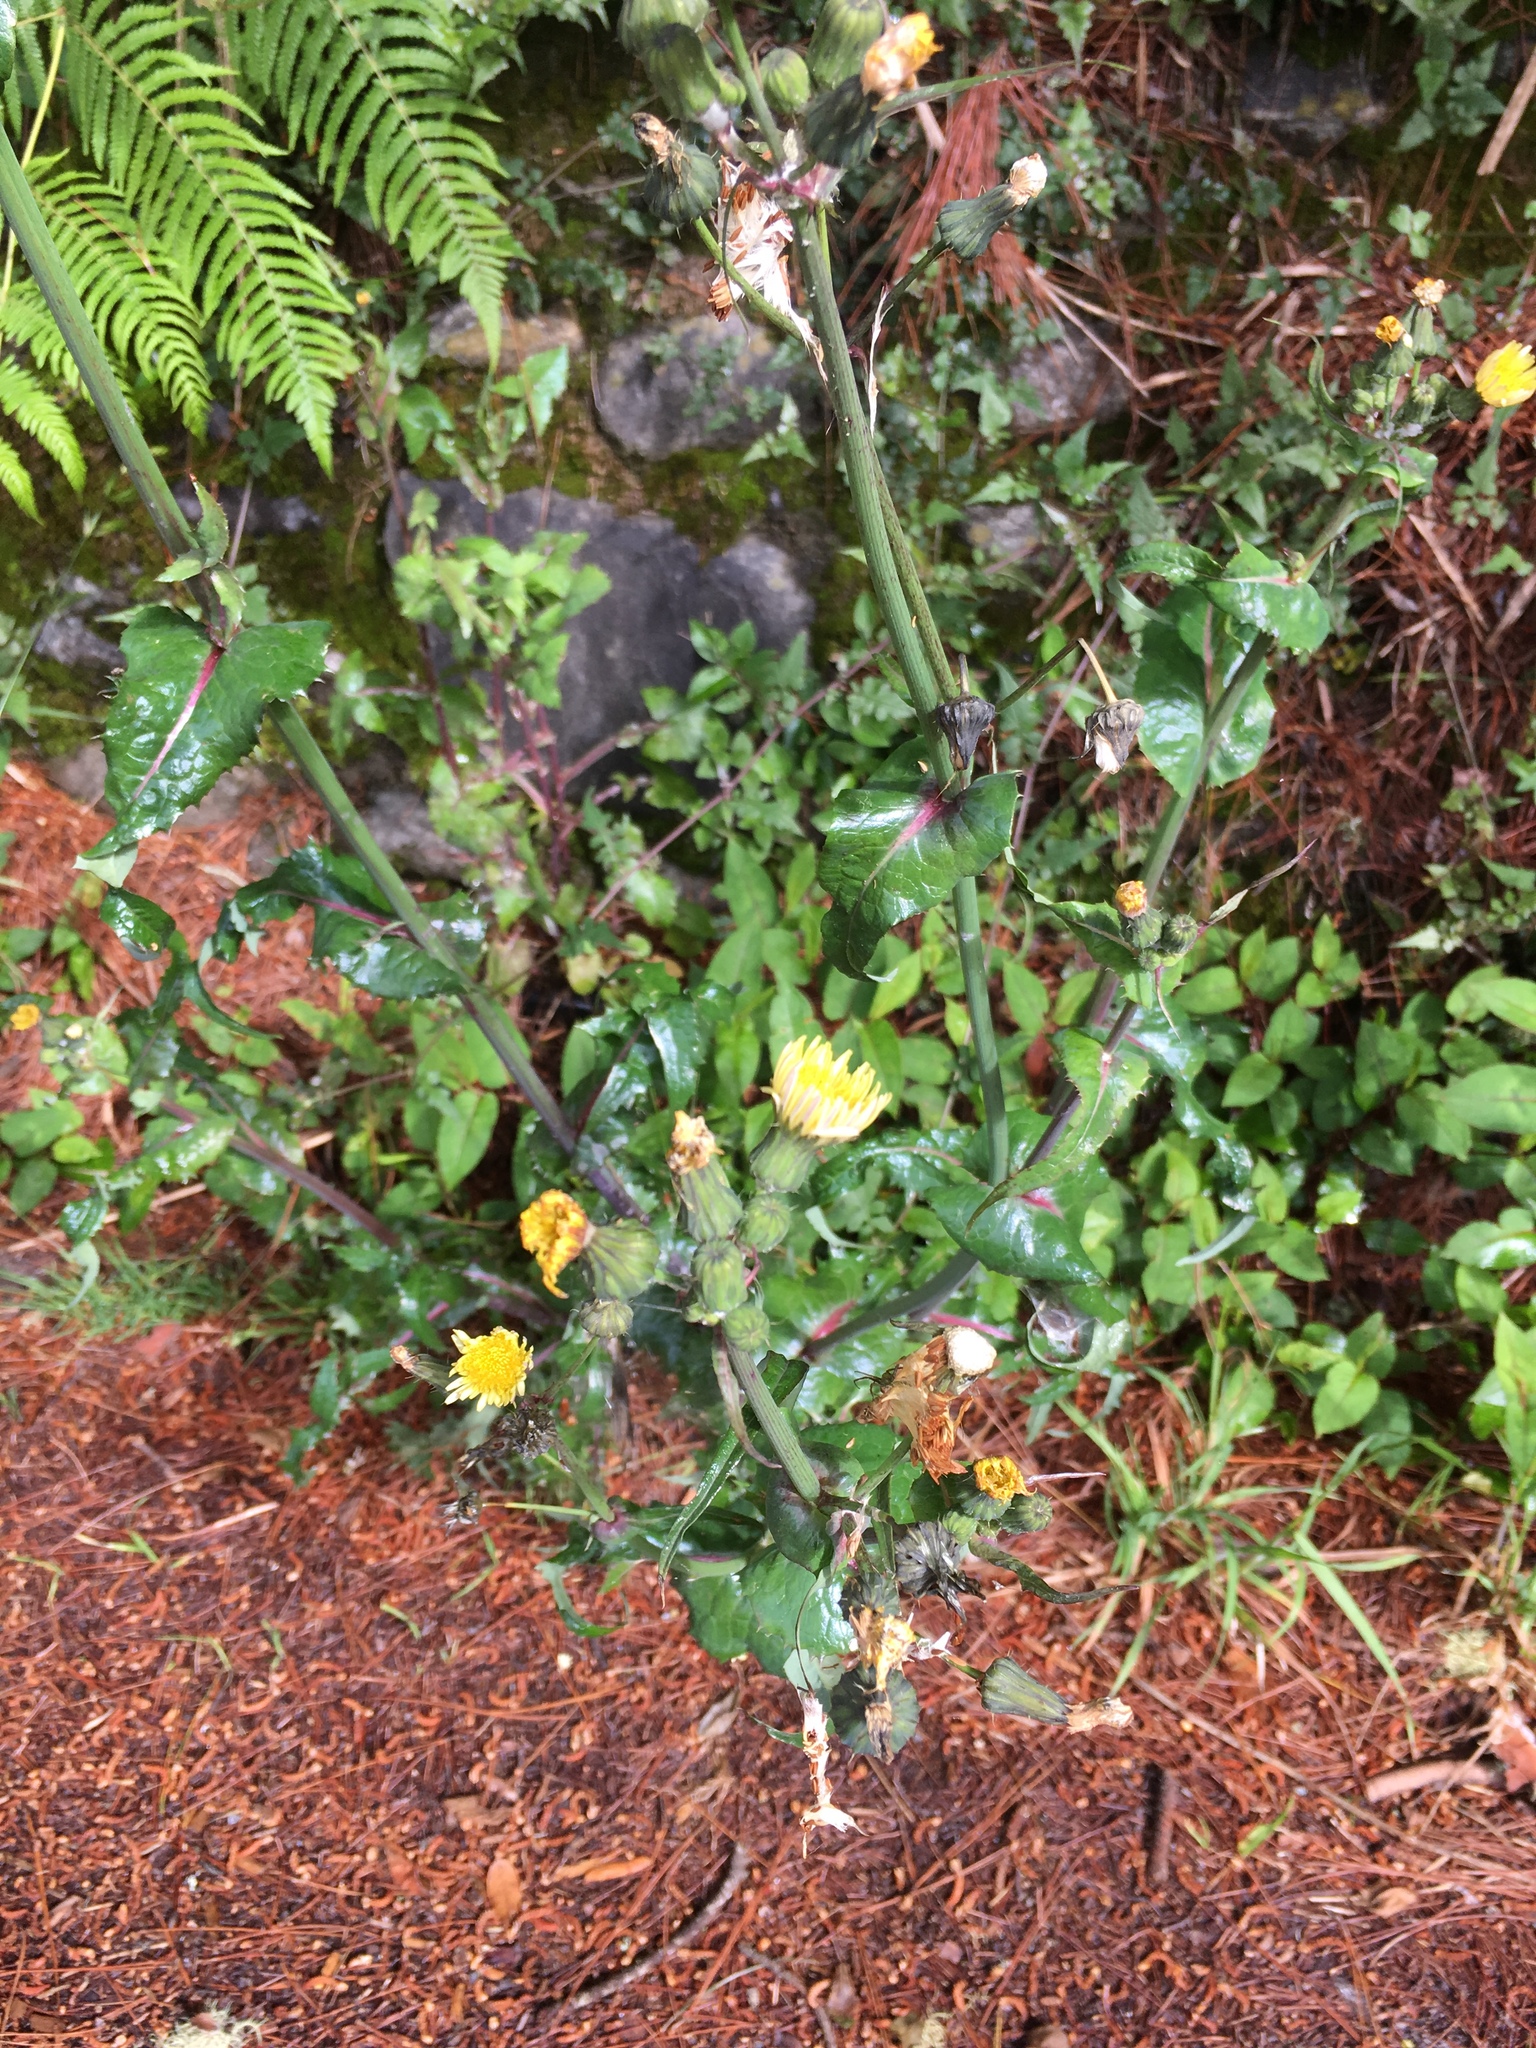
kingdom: Plantae
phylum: Tracheophyta
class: Magnoliopsida
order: Asterales
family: Asteraceae
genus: Sonchus
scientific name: Sonchus oleraceus
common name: Common sowthistle
